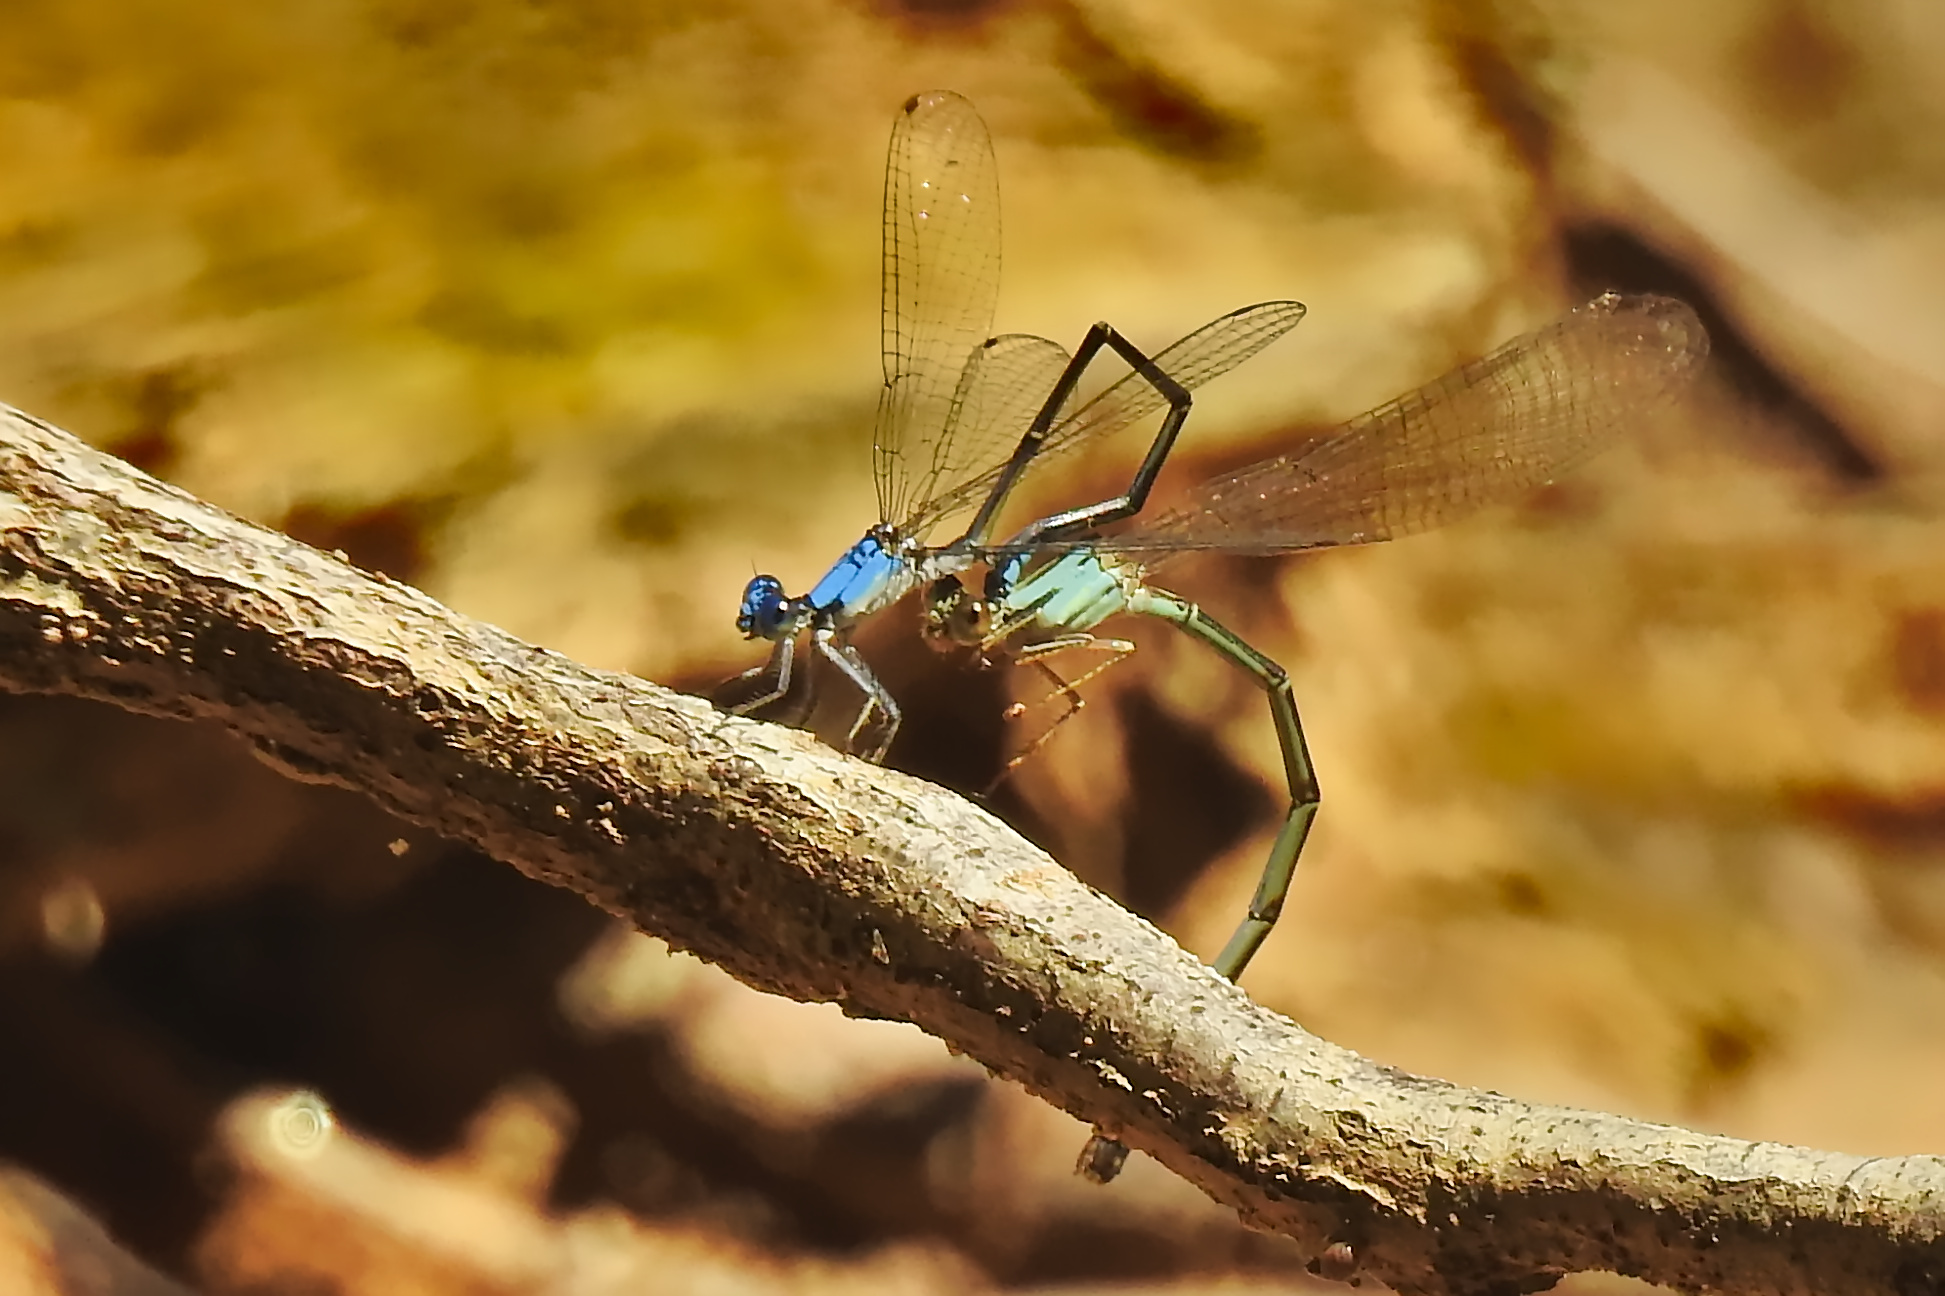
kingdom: Animalia
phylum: Arthropoda
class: Insecta
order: Odonata
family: Coenagrionidae
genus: Argia
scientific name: Argia apicalis
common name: Blue-fronted dancer
